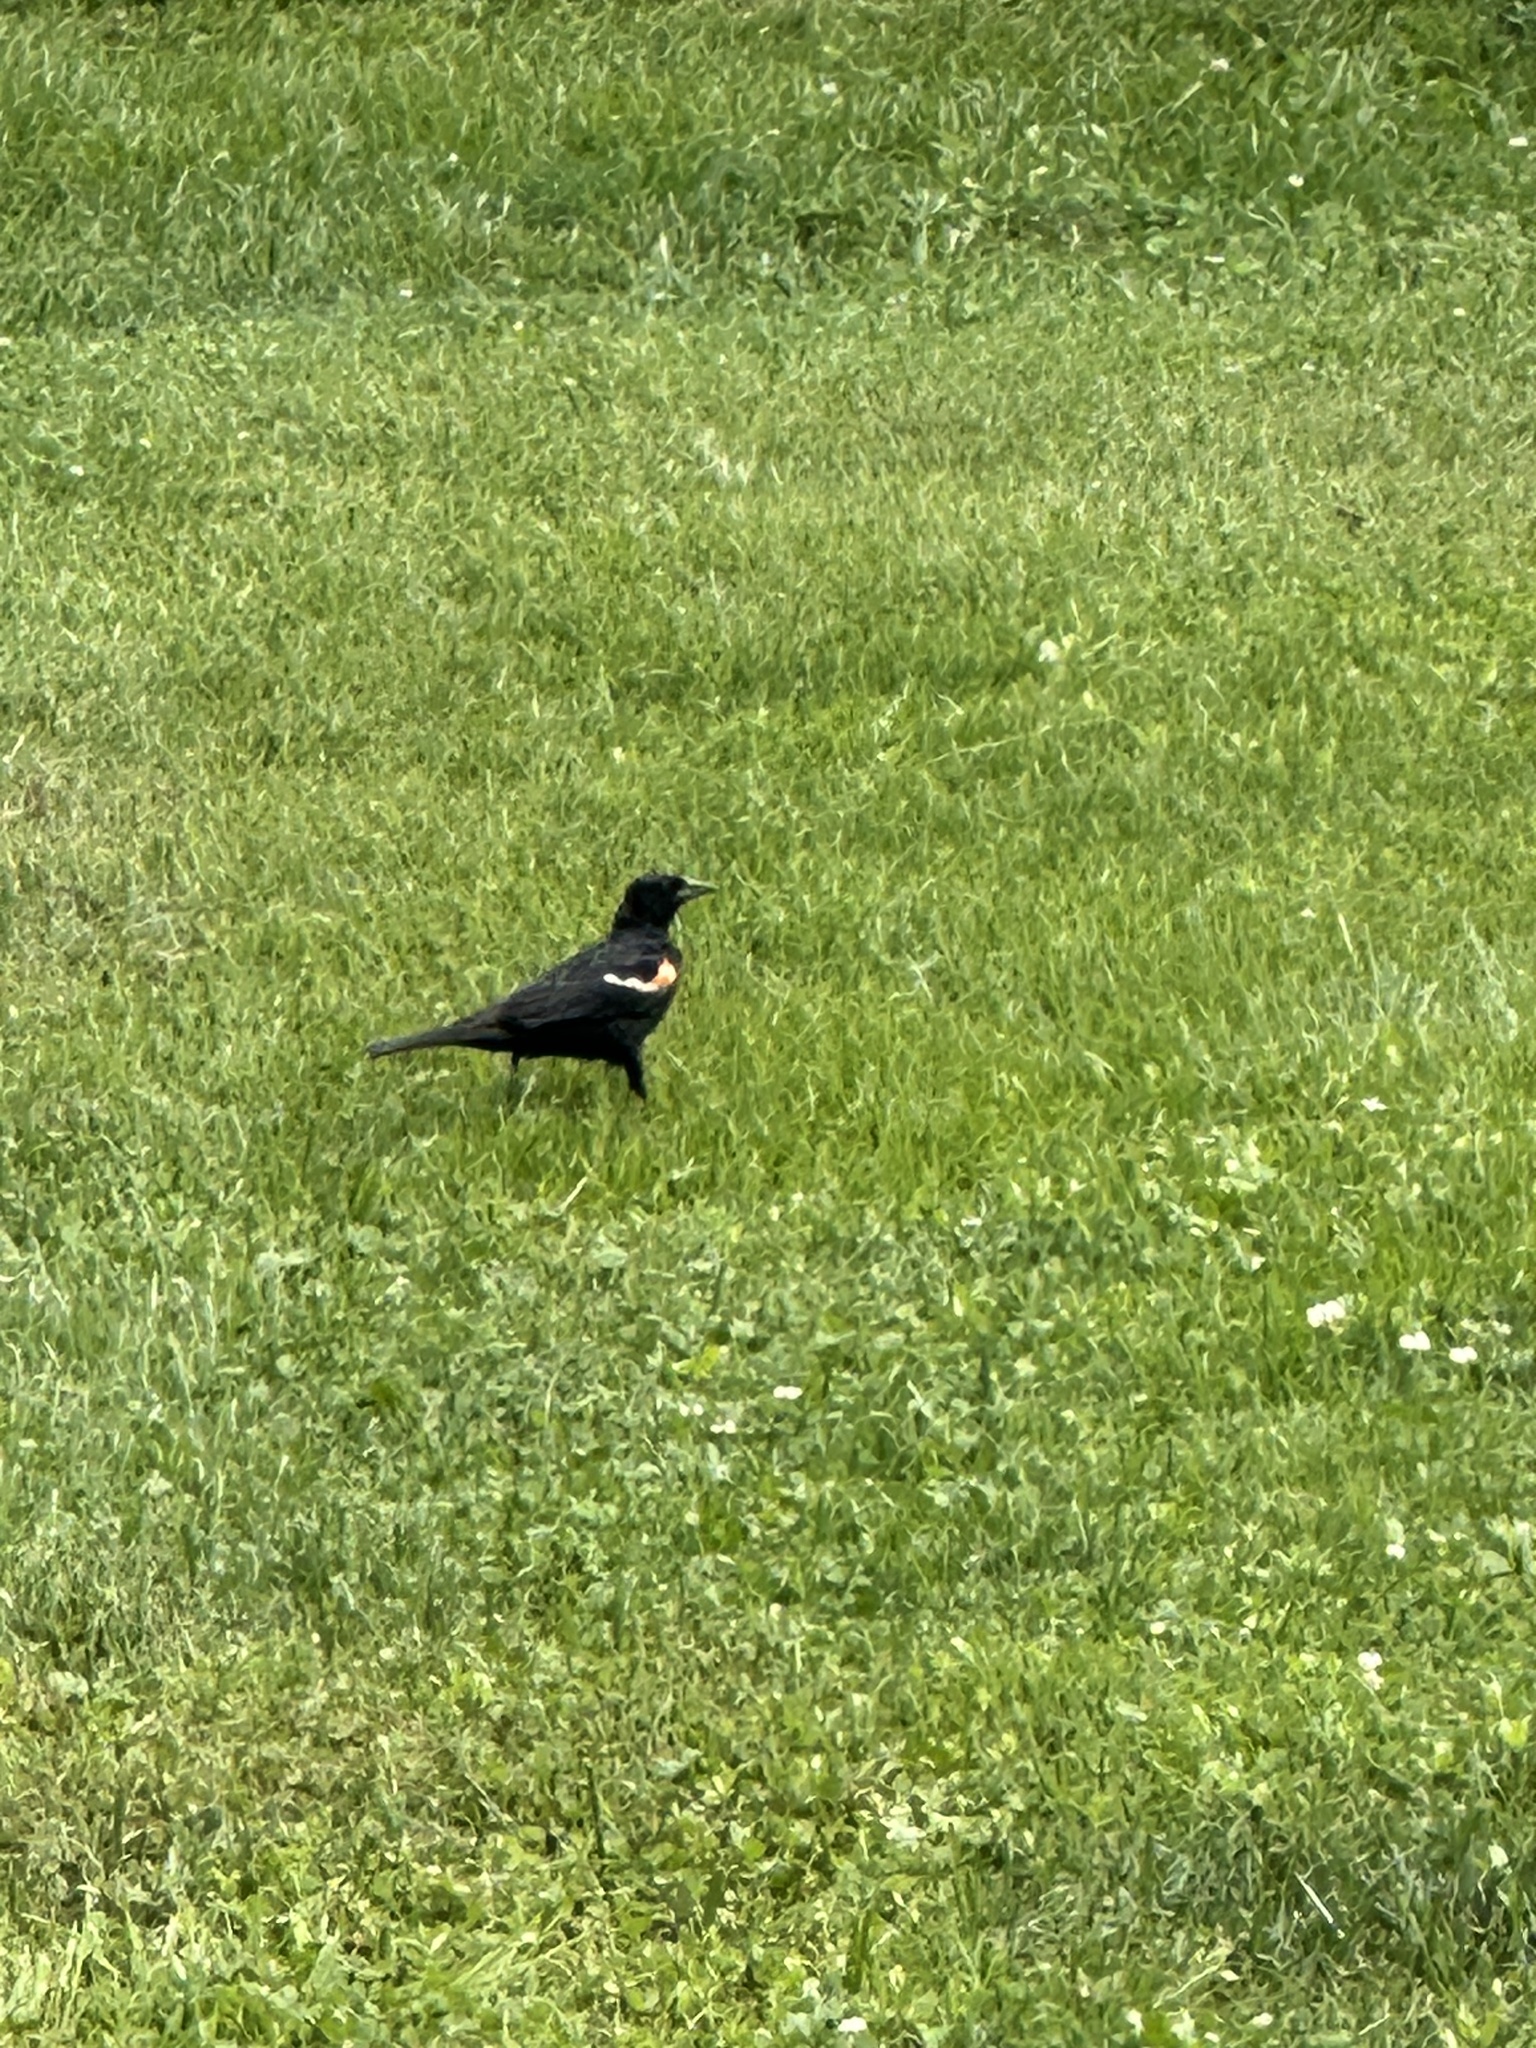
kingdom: Animalia
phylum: Chordata
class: Aves
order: Passeriformes
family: Icteridae
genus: Agelaius
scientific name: Agelaius phoeniceus
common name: Red-winged blackbird
